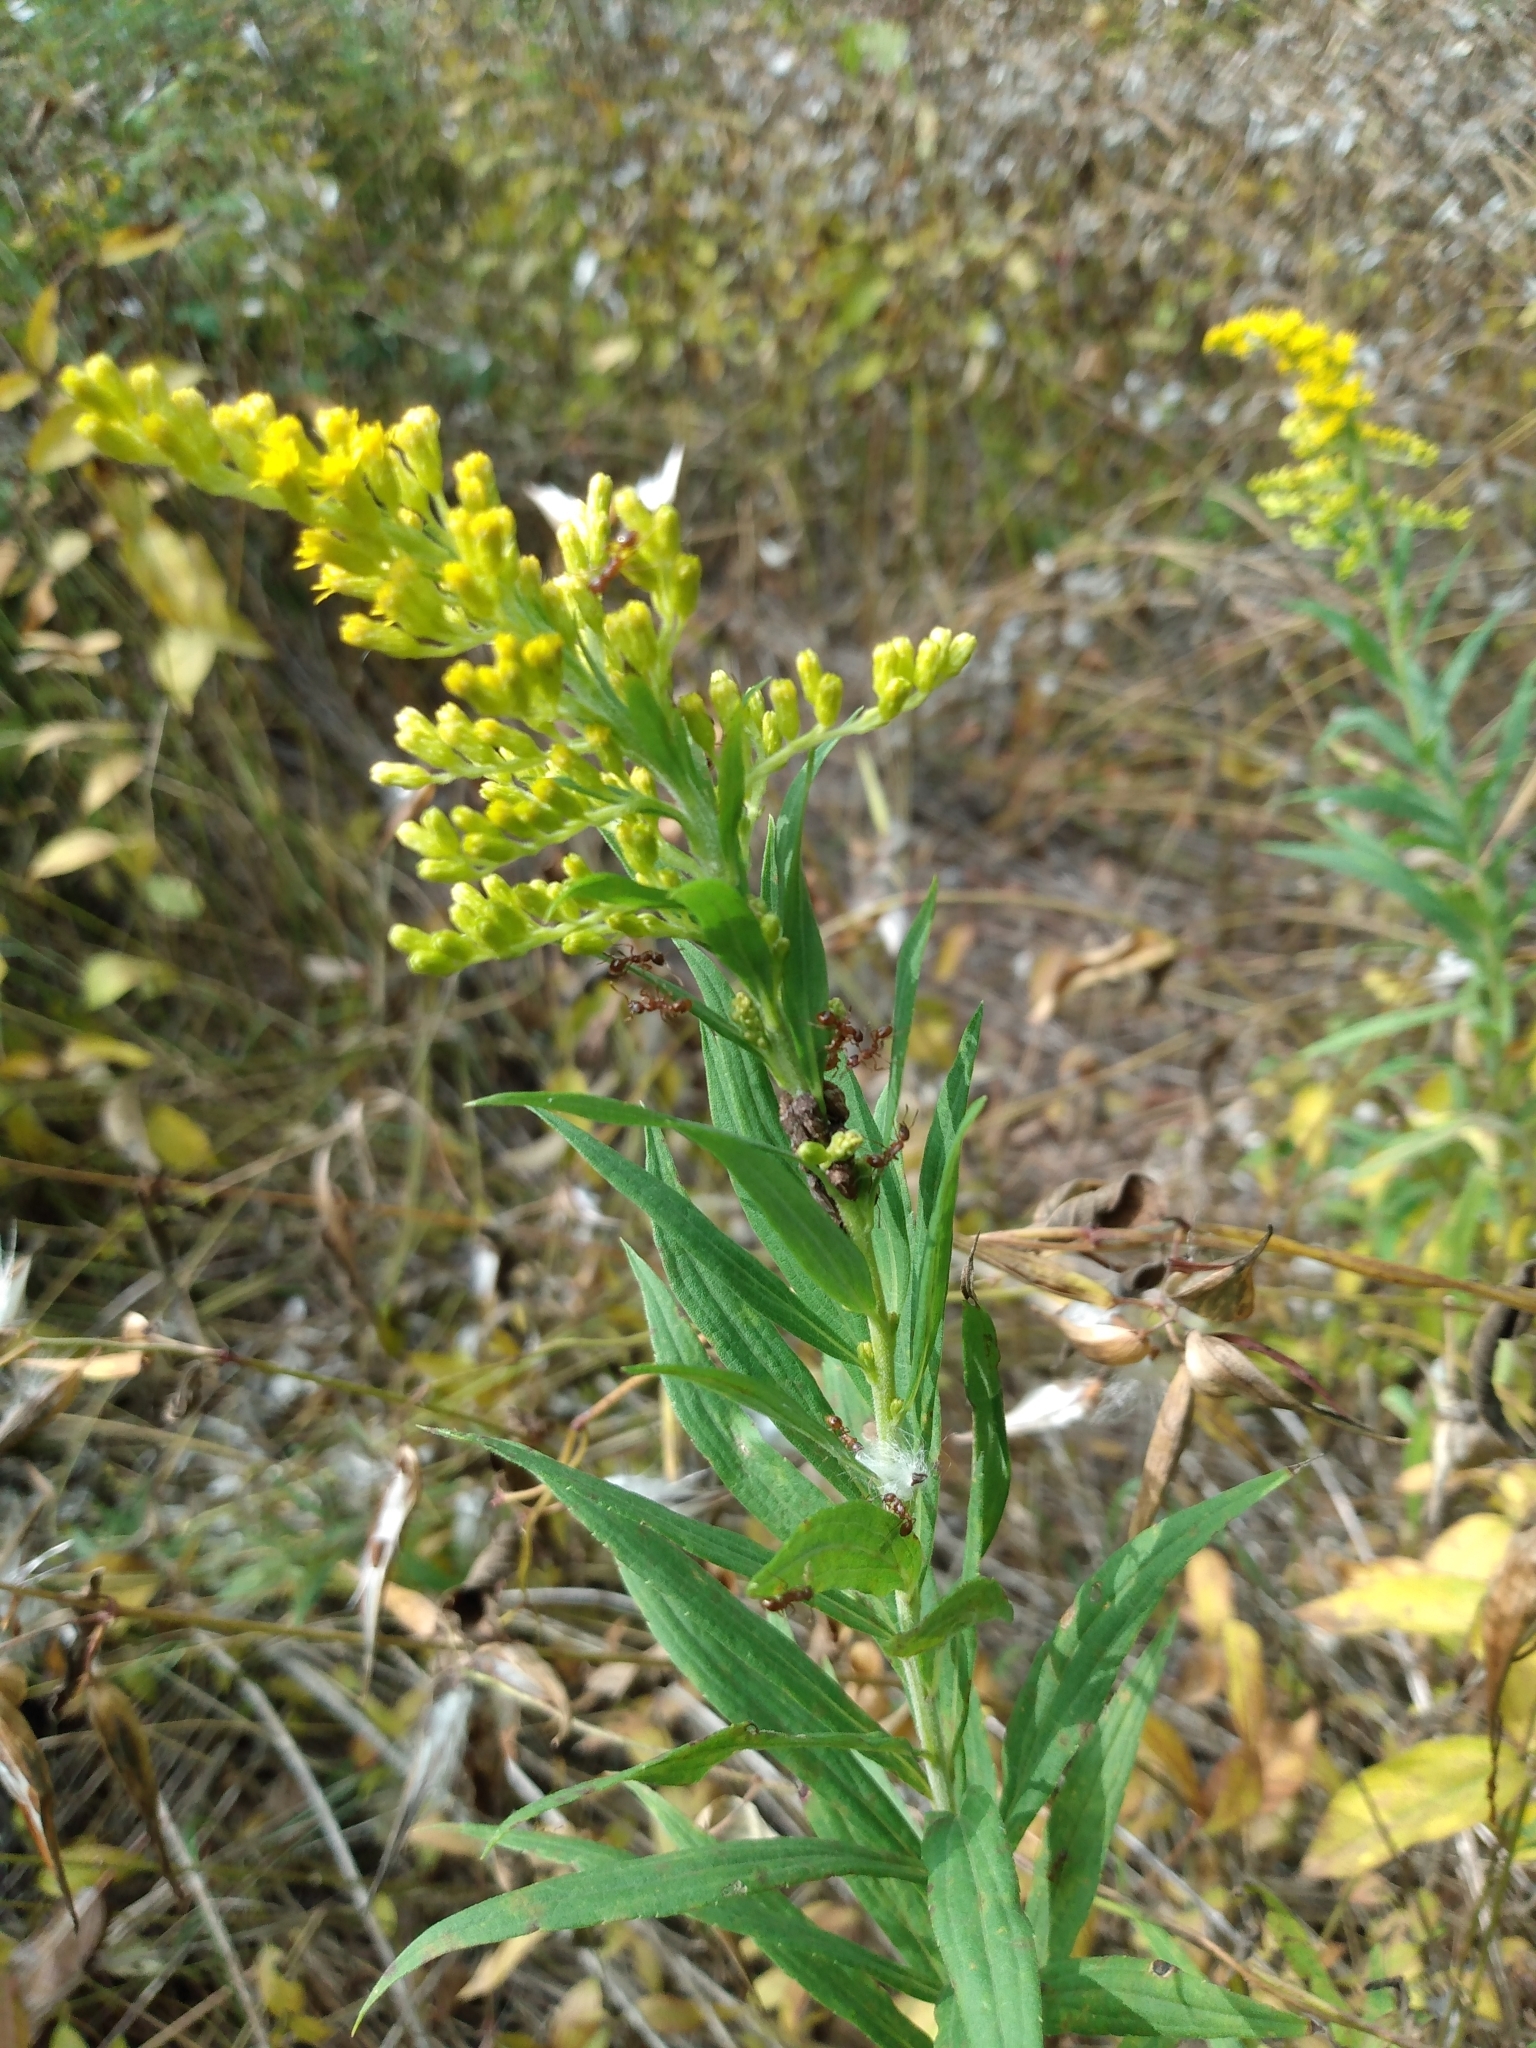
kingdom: Plantae
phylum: Tracheophyta
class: Magnoliopsida
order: Asterales
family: Asteraceae
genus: Solidago
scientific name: Solidago altissima
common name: Late goldenrod
